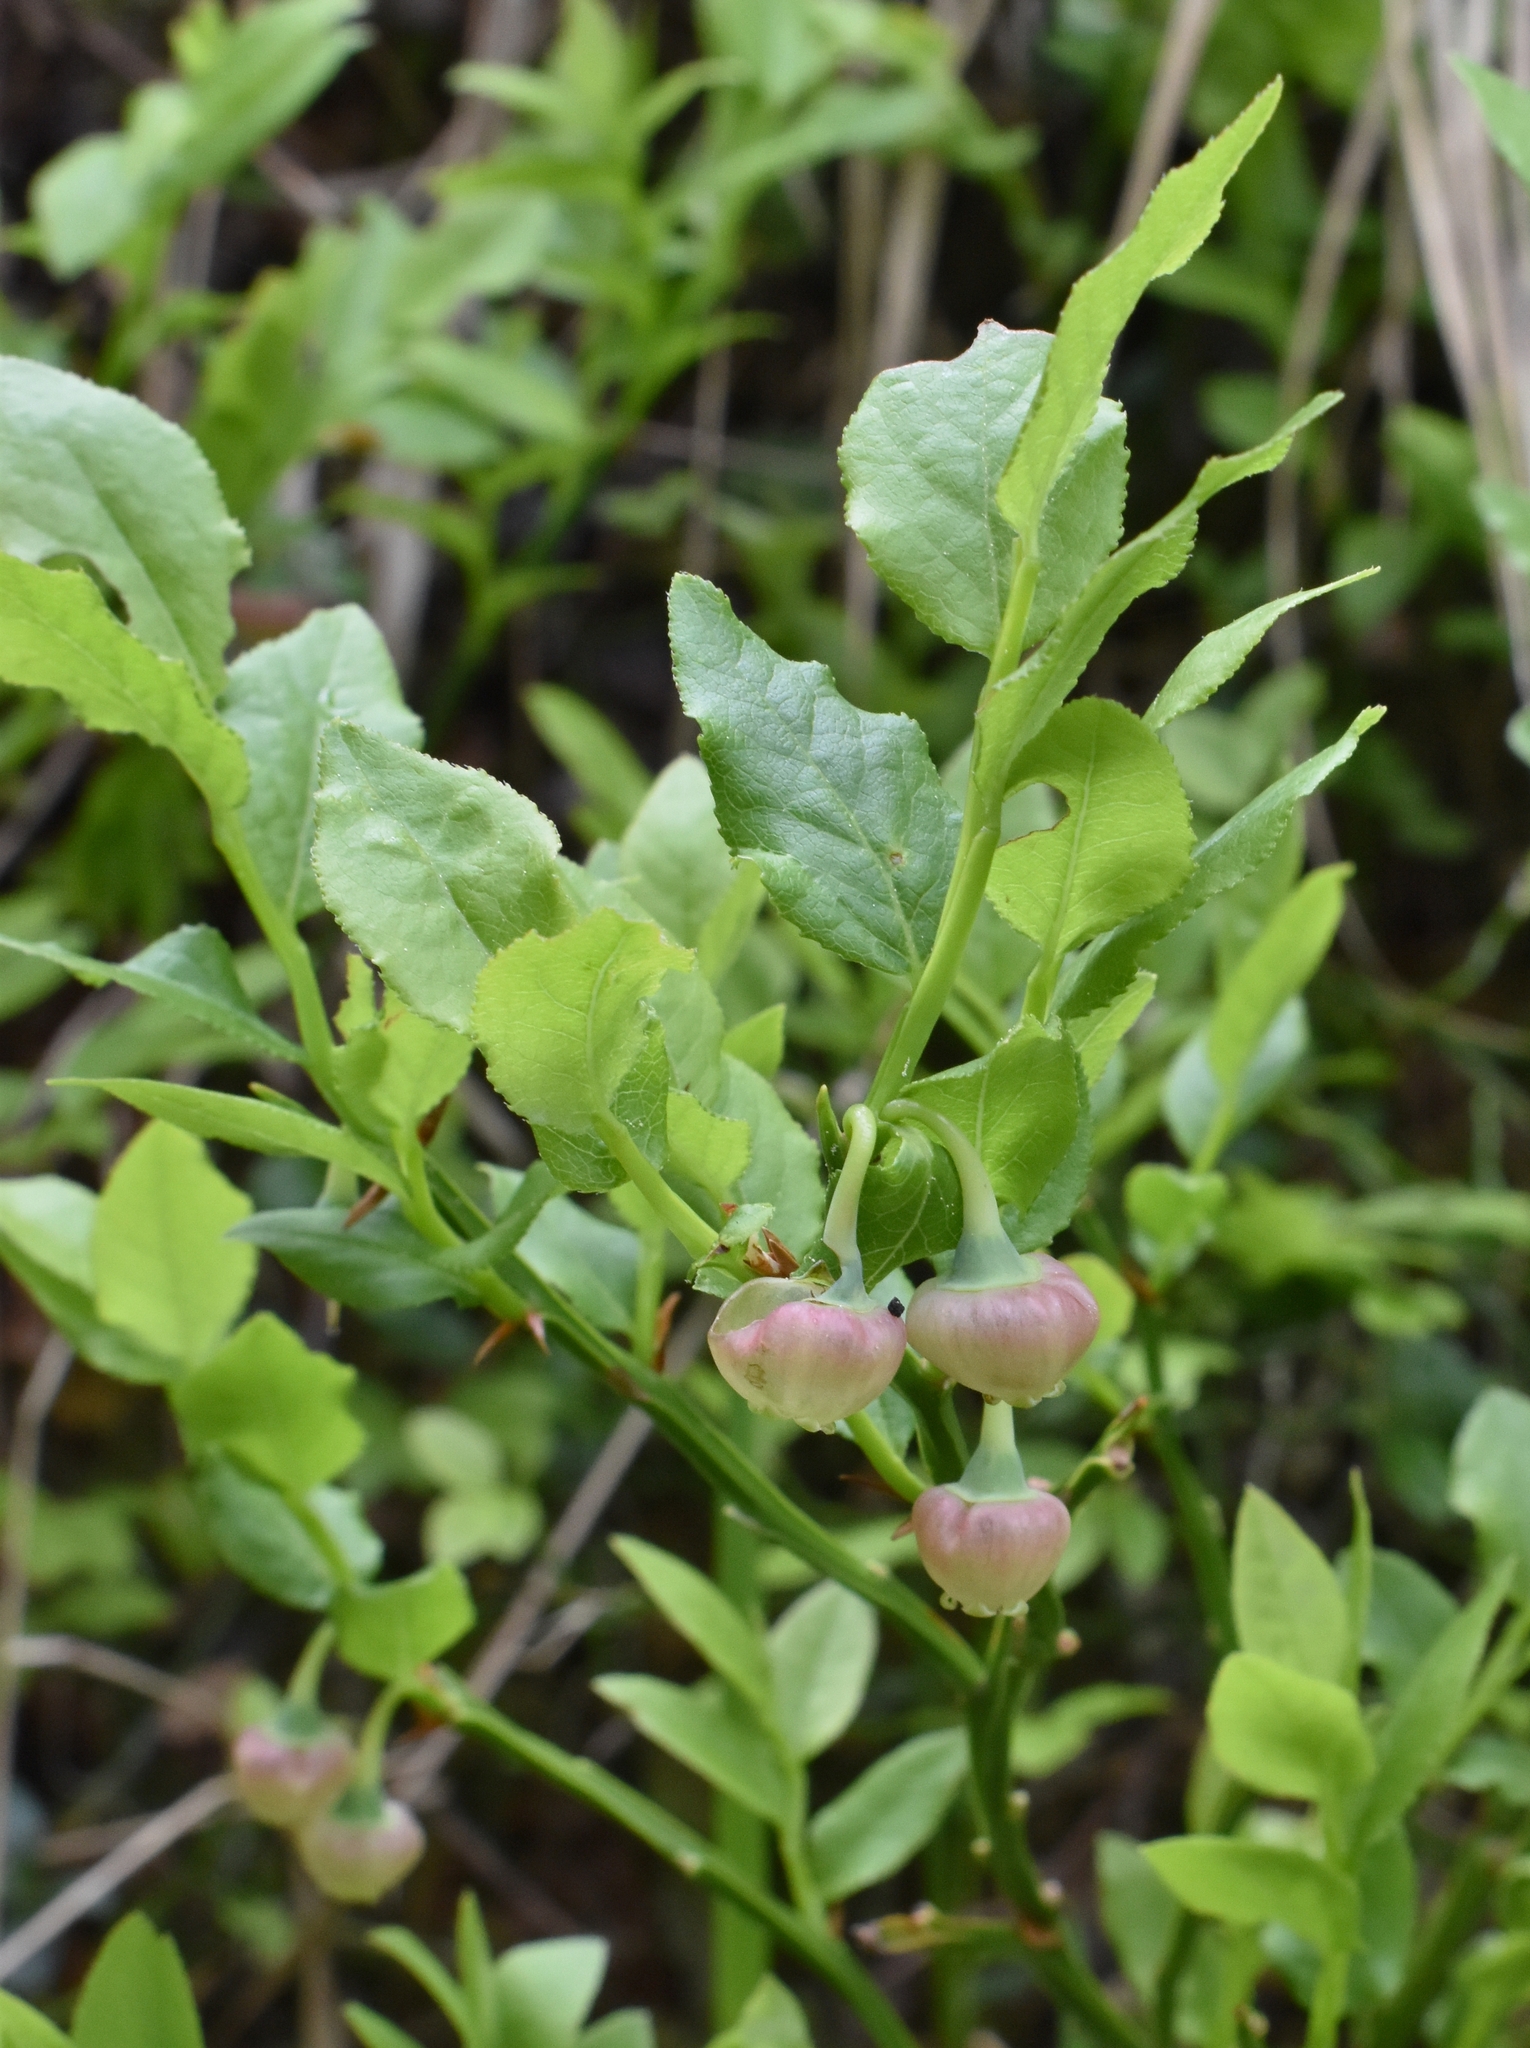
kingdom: Plantae
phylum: Tracheophyta
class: Magnoliopsida
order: Ericales
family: Ericaceae
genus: Vaccinium
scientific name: Vaccinium myrtillus
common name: Bilberry
